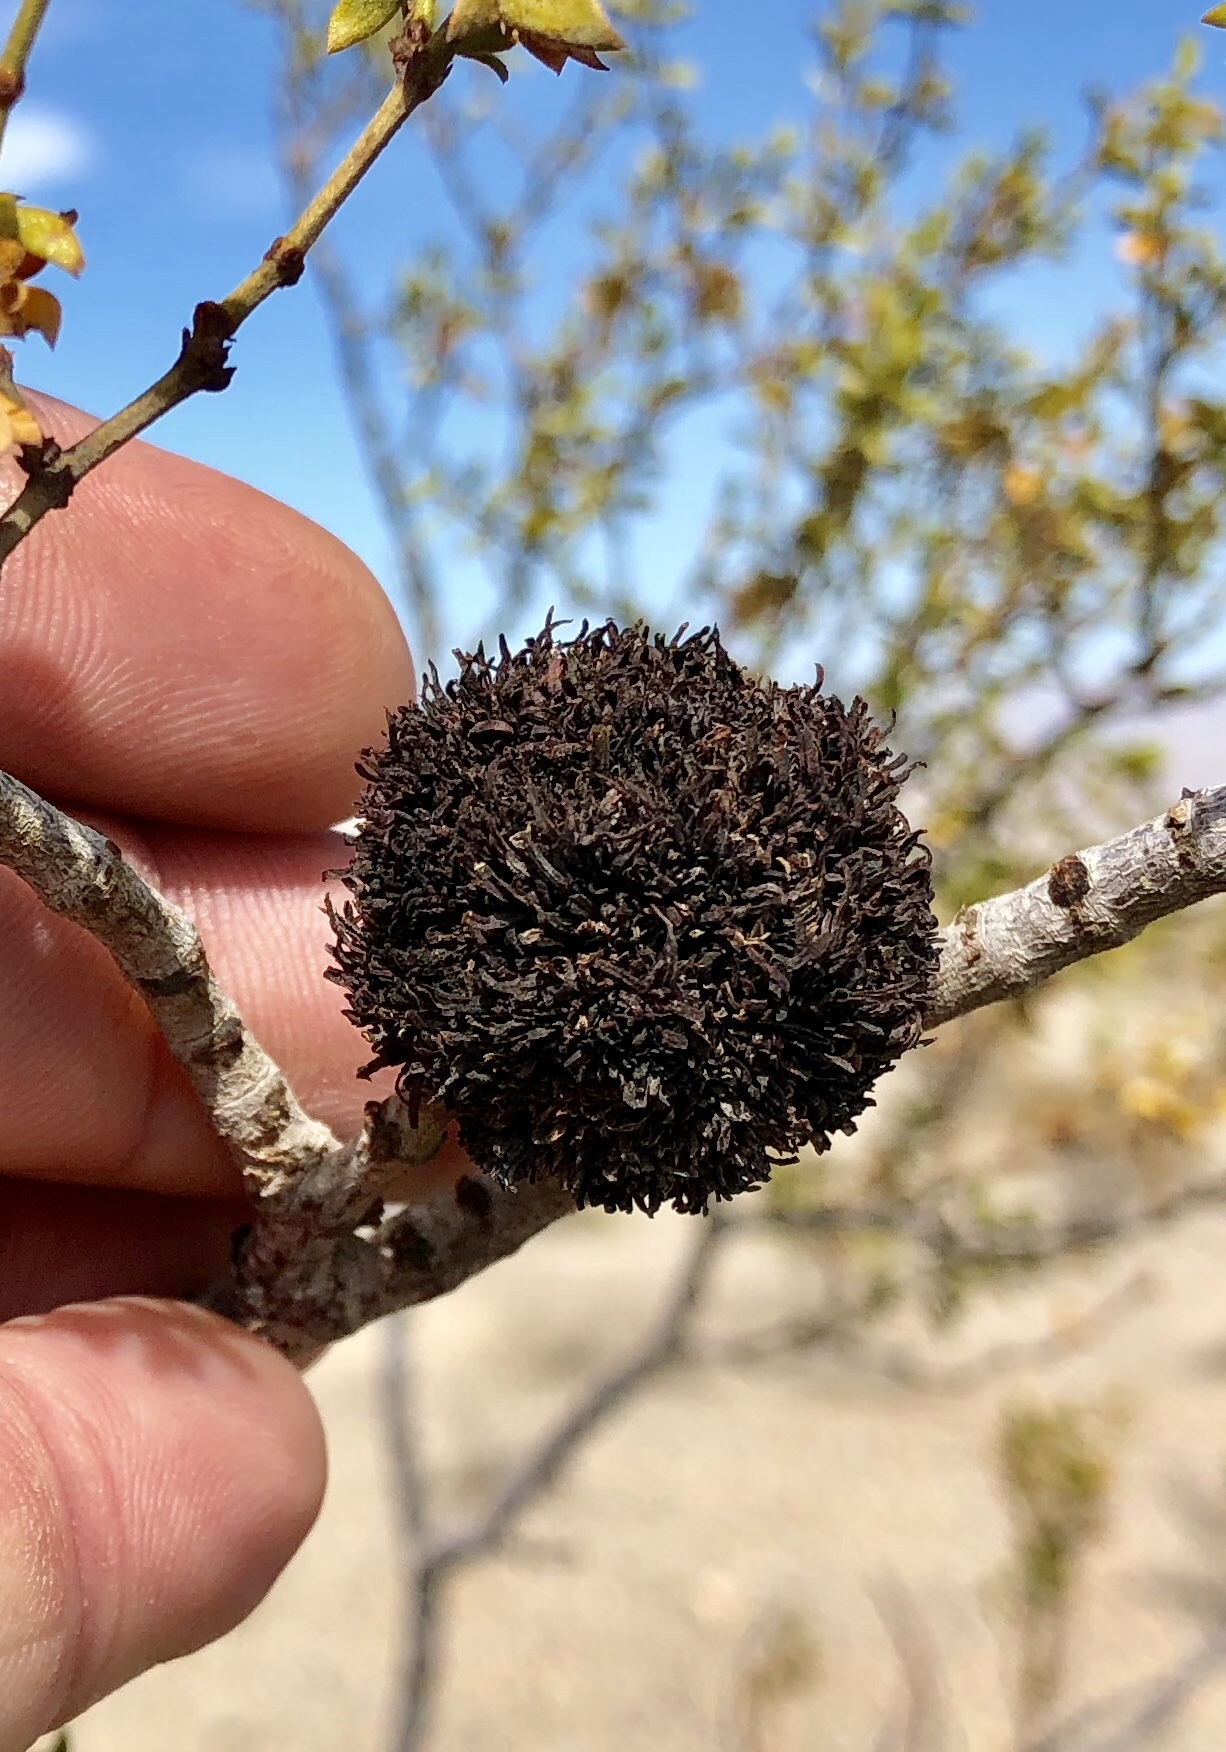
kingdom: Animalia
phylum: Arthropoda
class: Insecta
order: Diptera
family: Cecidomyiidae
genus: Asphondylia
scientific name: Asphondylia auripila
